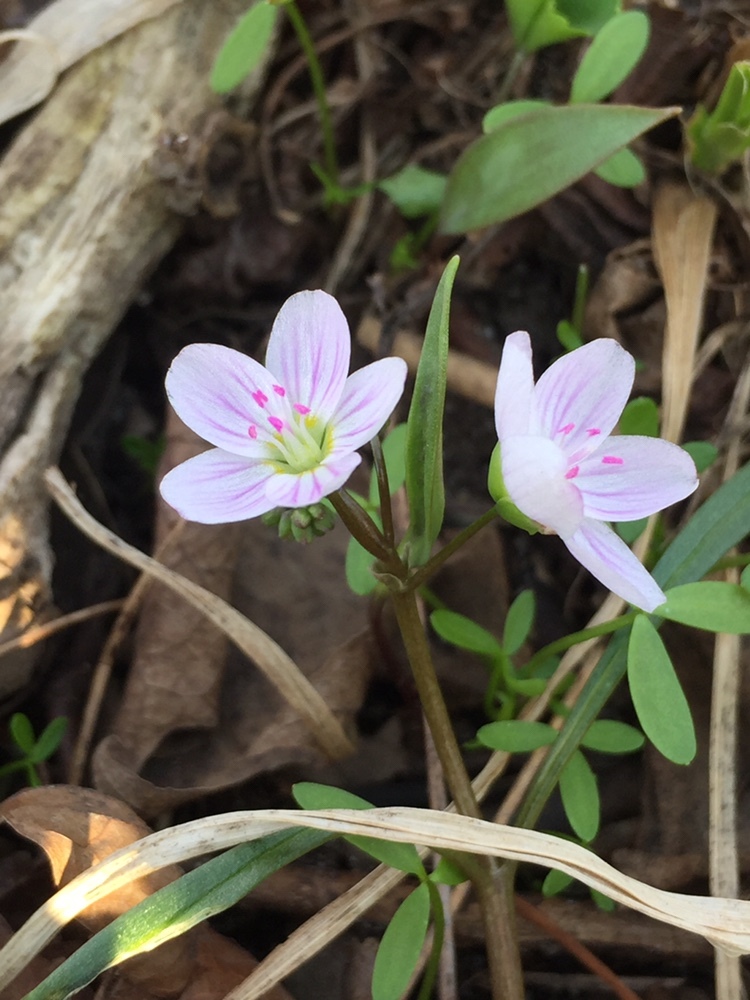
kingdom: Plantae
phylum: Tracheophyta
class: Magnoliopsida
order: Caryophyllales
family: Montiaceae
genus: Claytonia
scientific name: Claytonia virginica
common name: Virginia springbeauty
